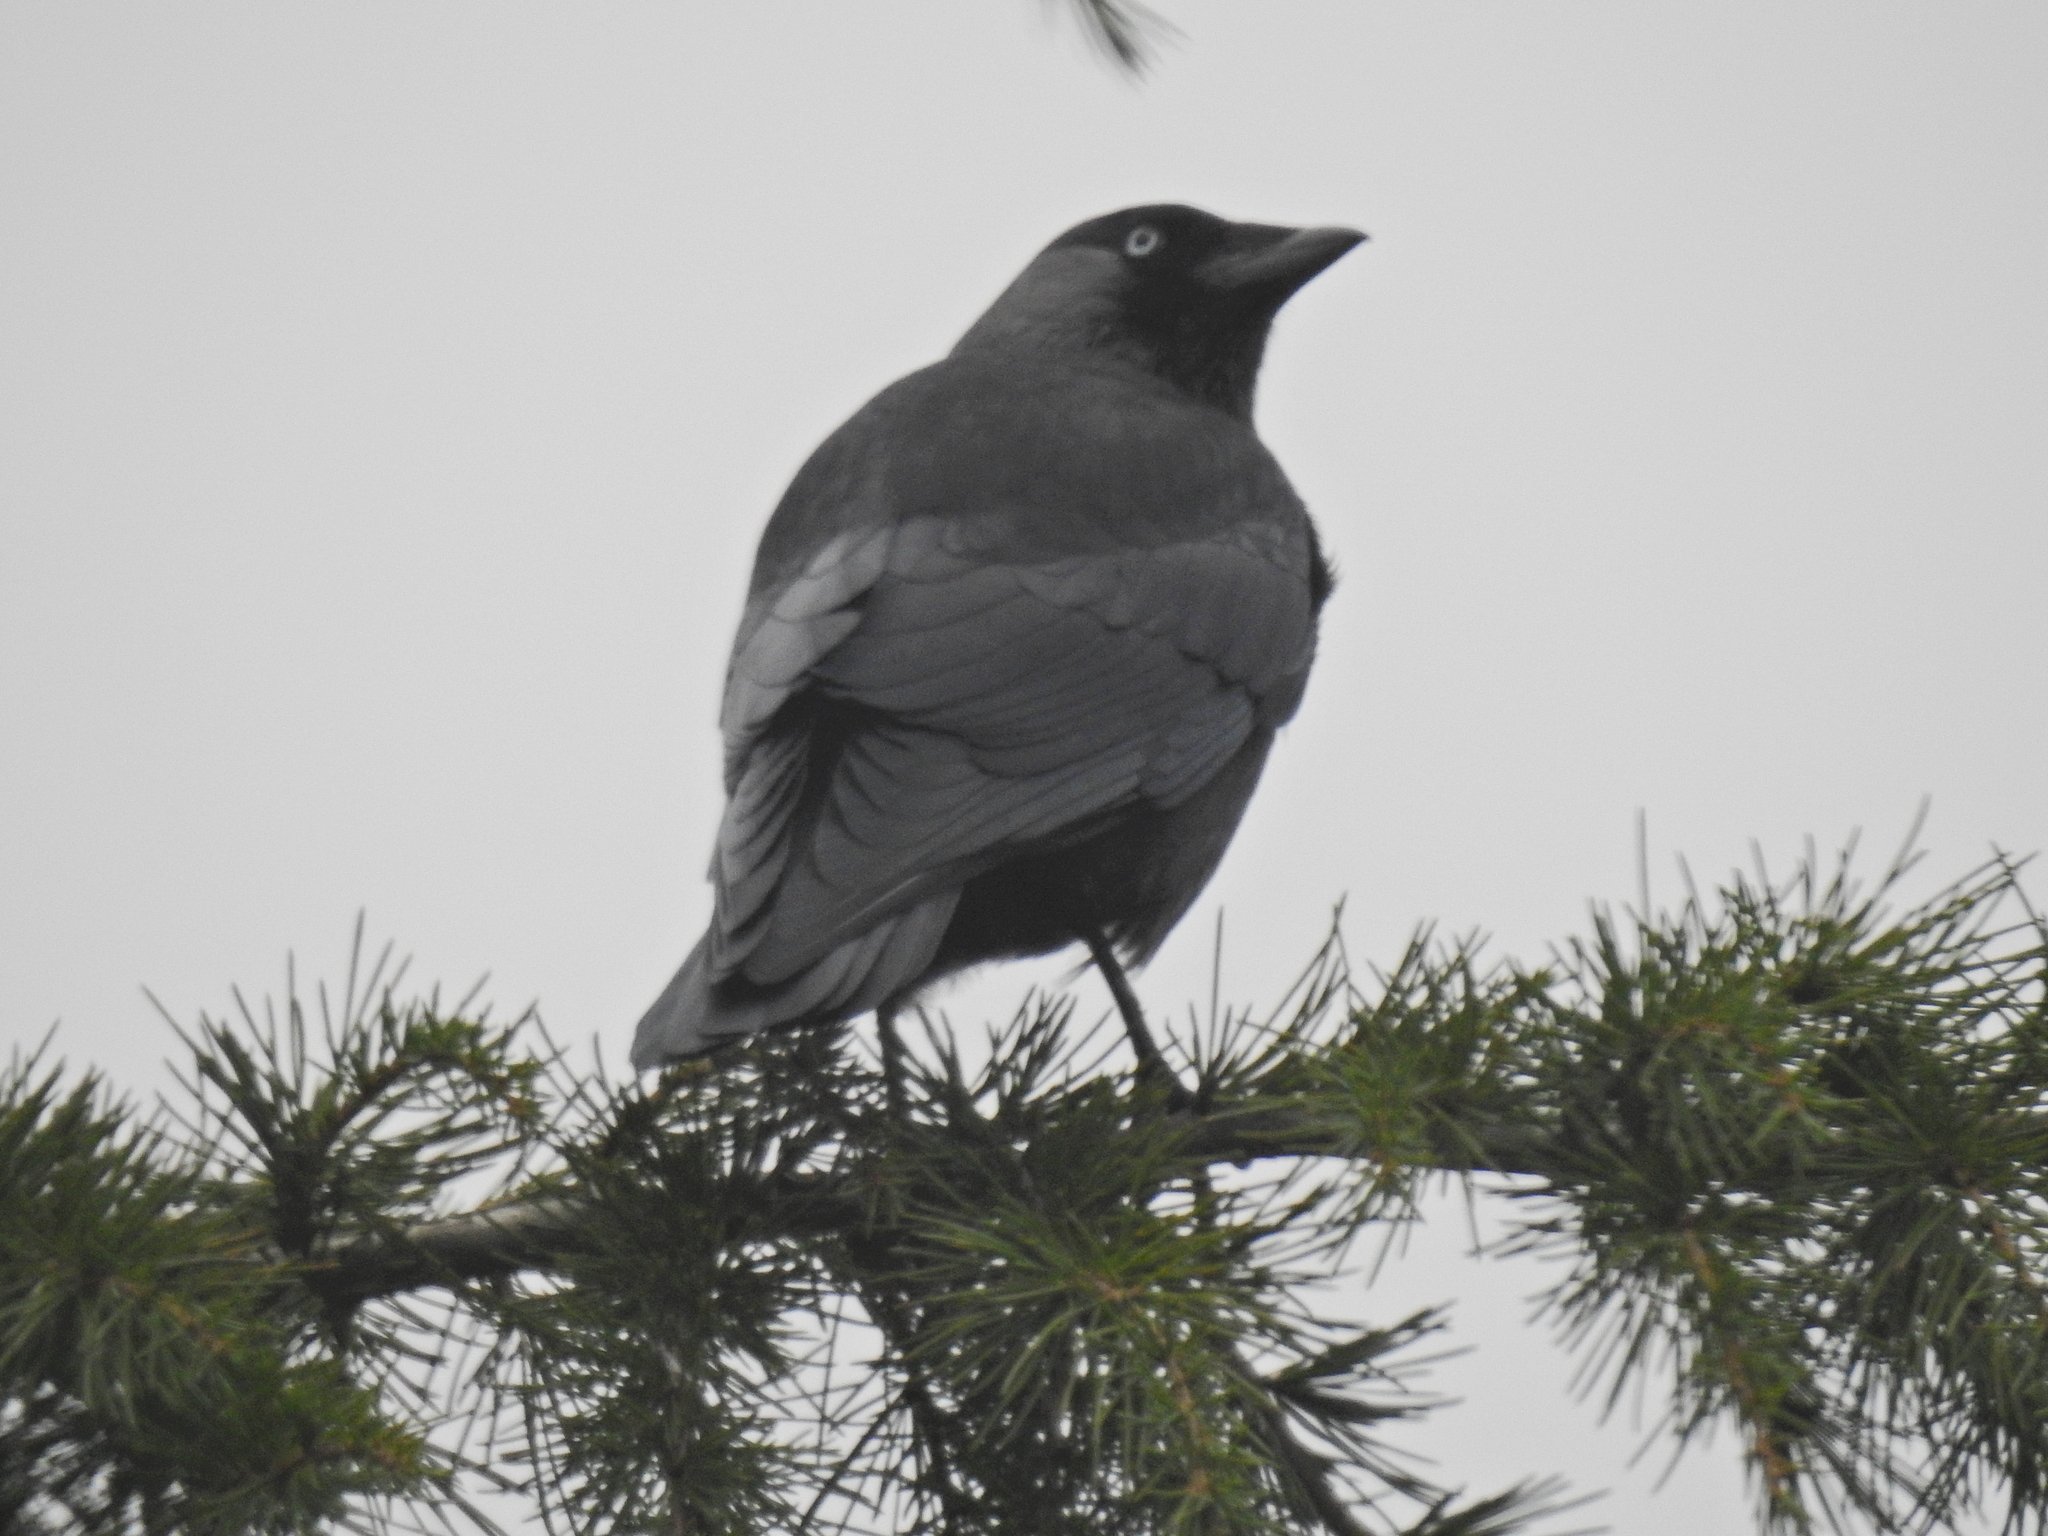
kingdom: Animalia
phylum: Chordata
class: Aves
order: Passeriformes
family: Corvidae
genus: Coloeus
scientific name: Coloeus monedula
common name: Western jackdaw
